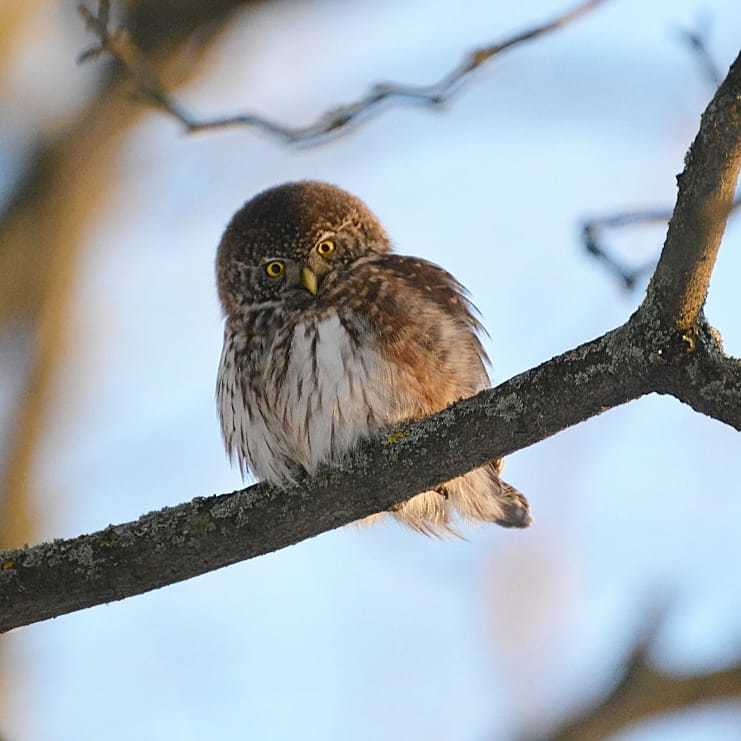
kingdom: Animalia
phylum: Chordata
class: Aves
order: Strigiformes
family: Strigidae
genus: Glaucidium
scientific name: Glaucidium passerinum
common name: Eurasian pygmy owl
